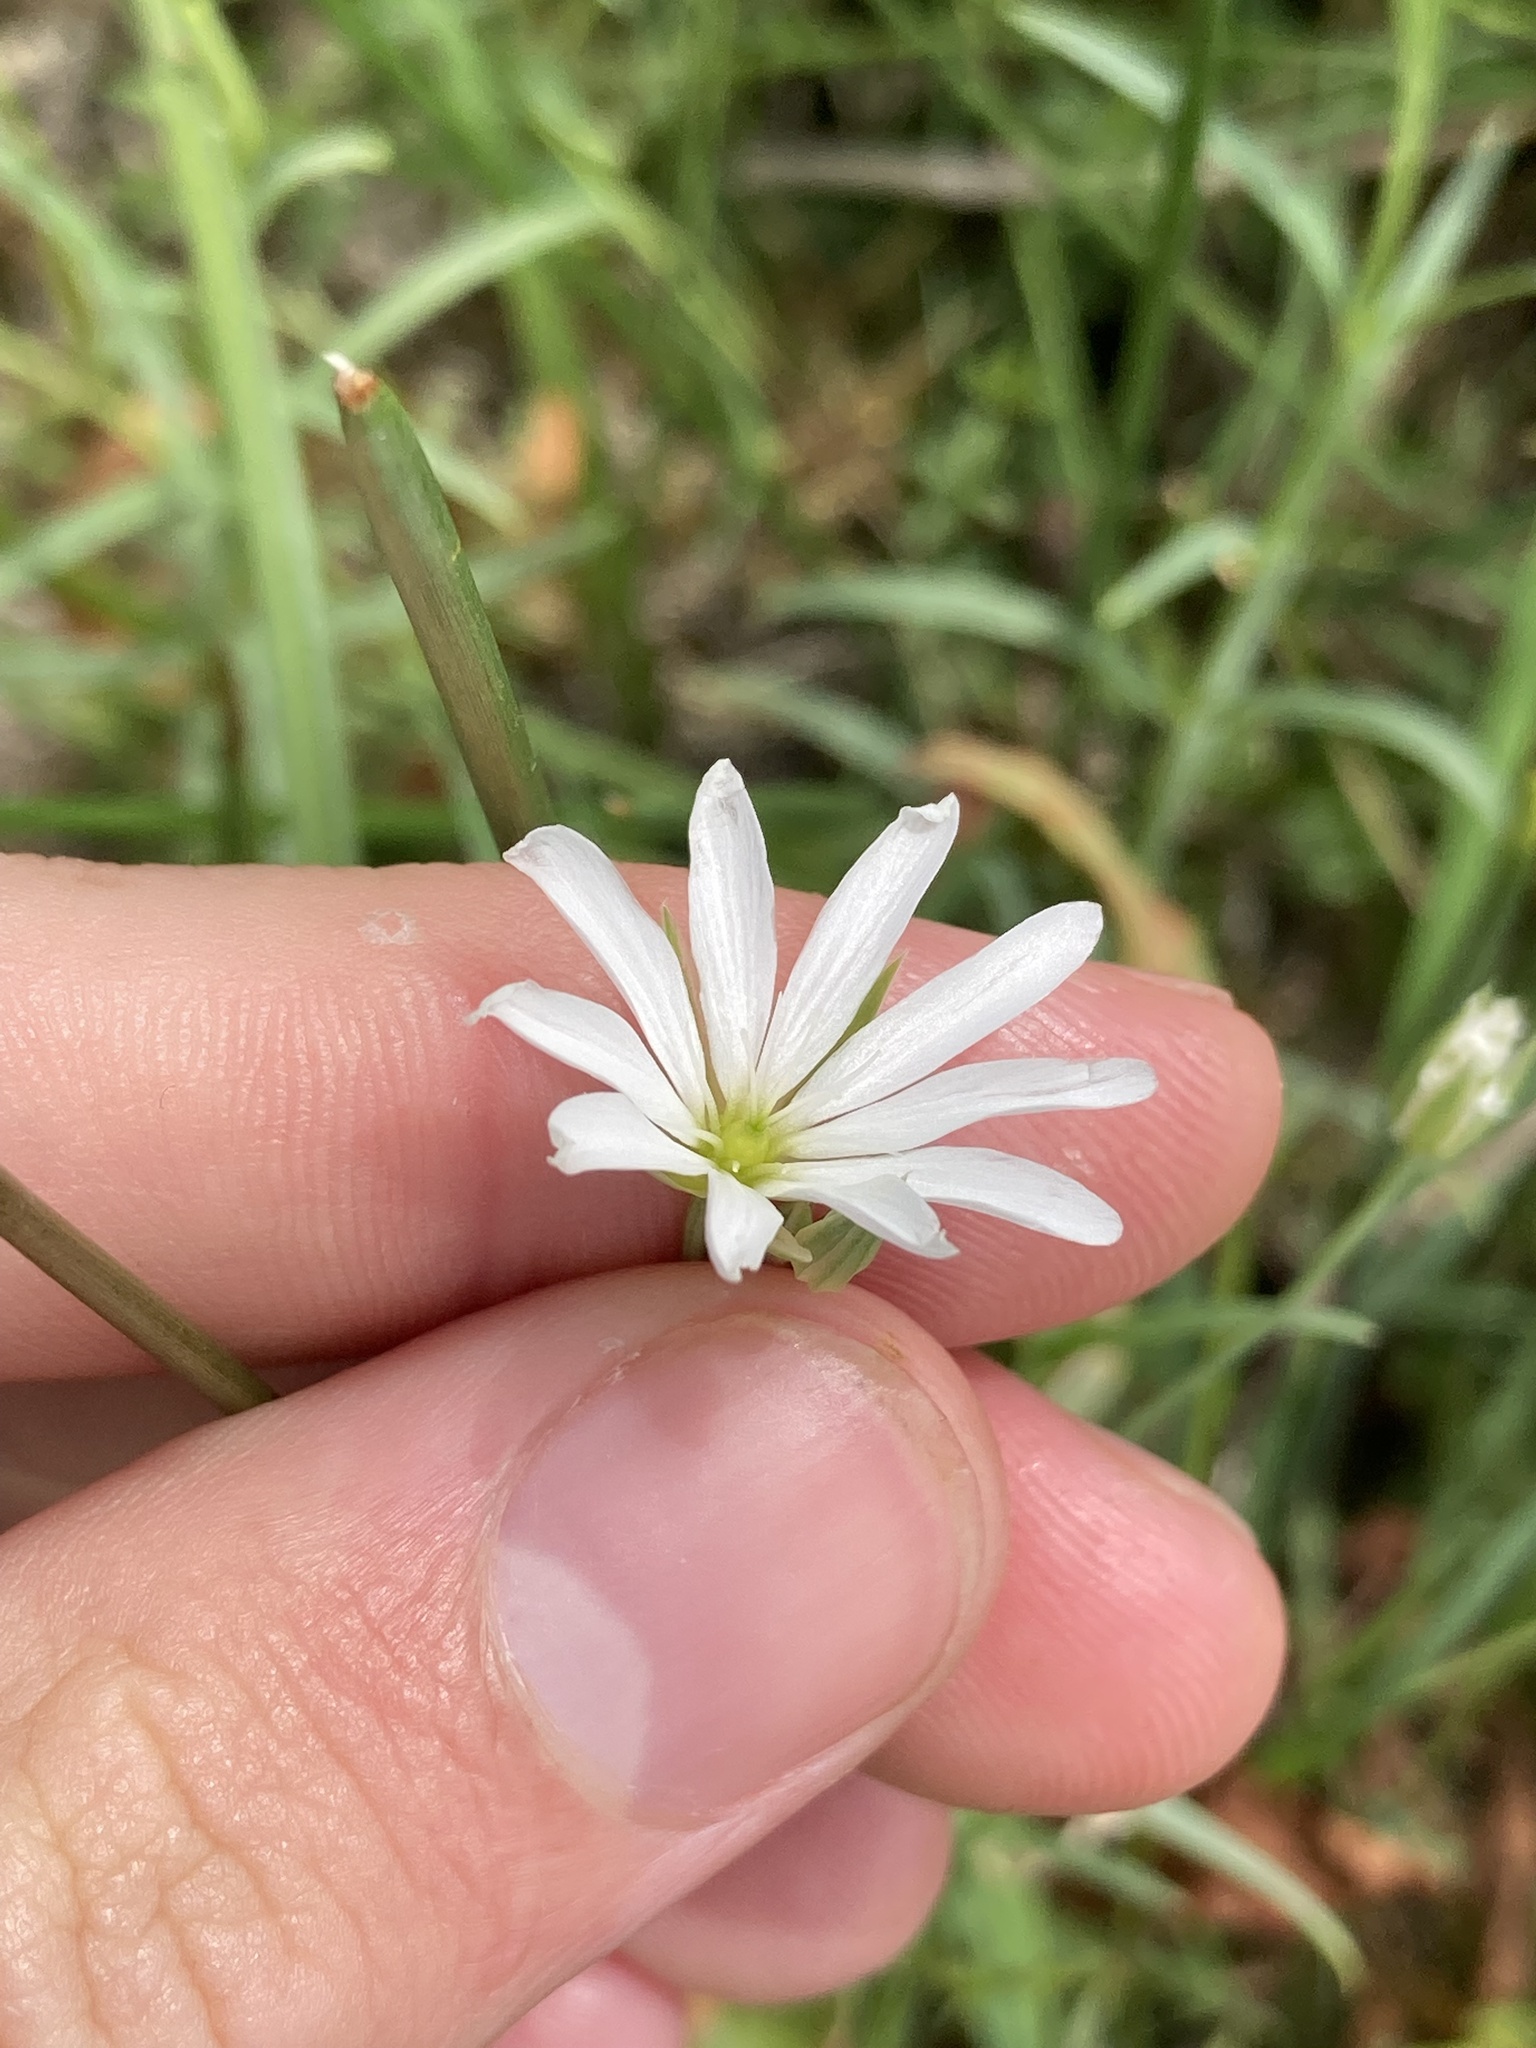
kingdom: Plantae
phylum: Tracheophyta
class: Magnoliopsida
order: Caryophyllales
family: Caryophyllaceae
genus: Stellaria
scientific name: Stellaria graminea
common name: Grass-like starwort
